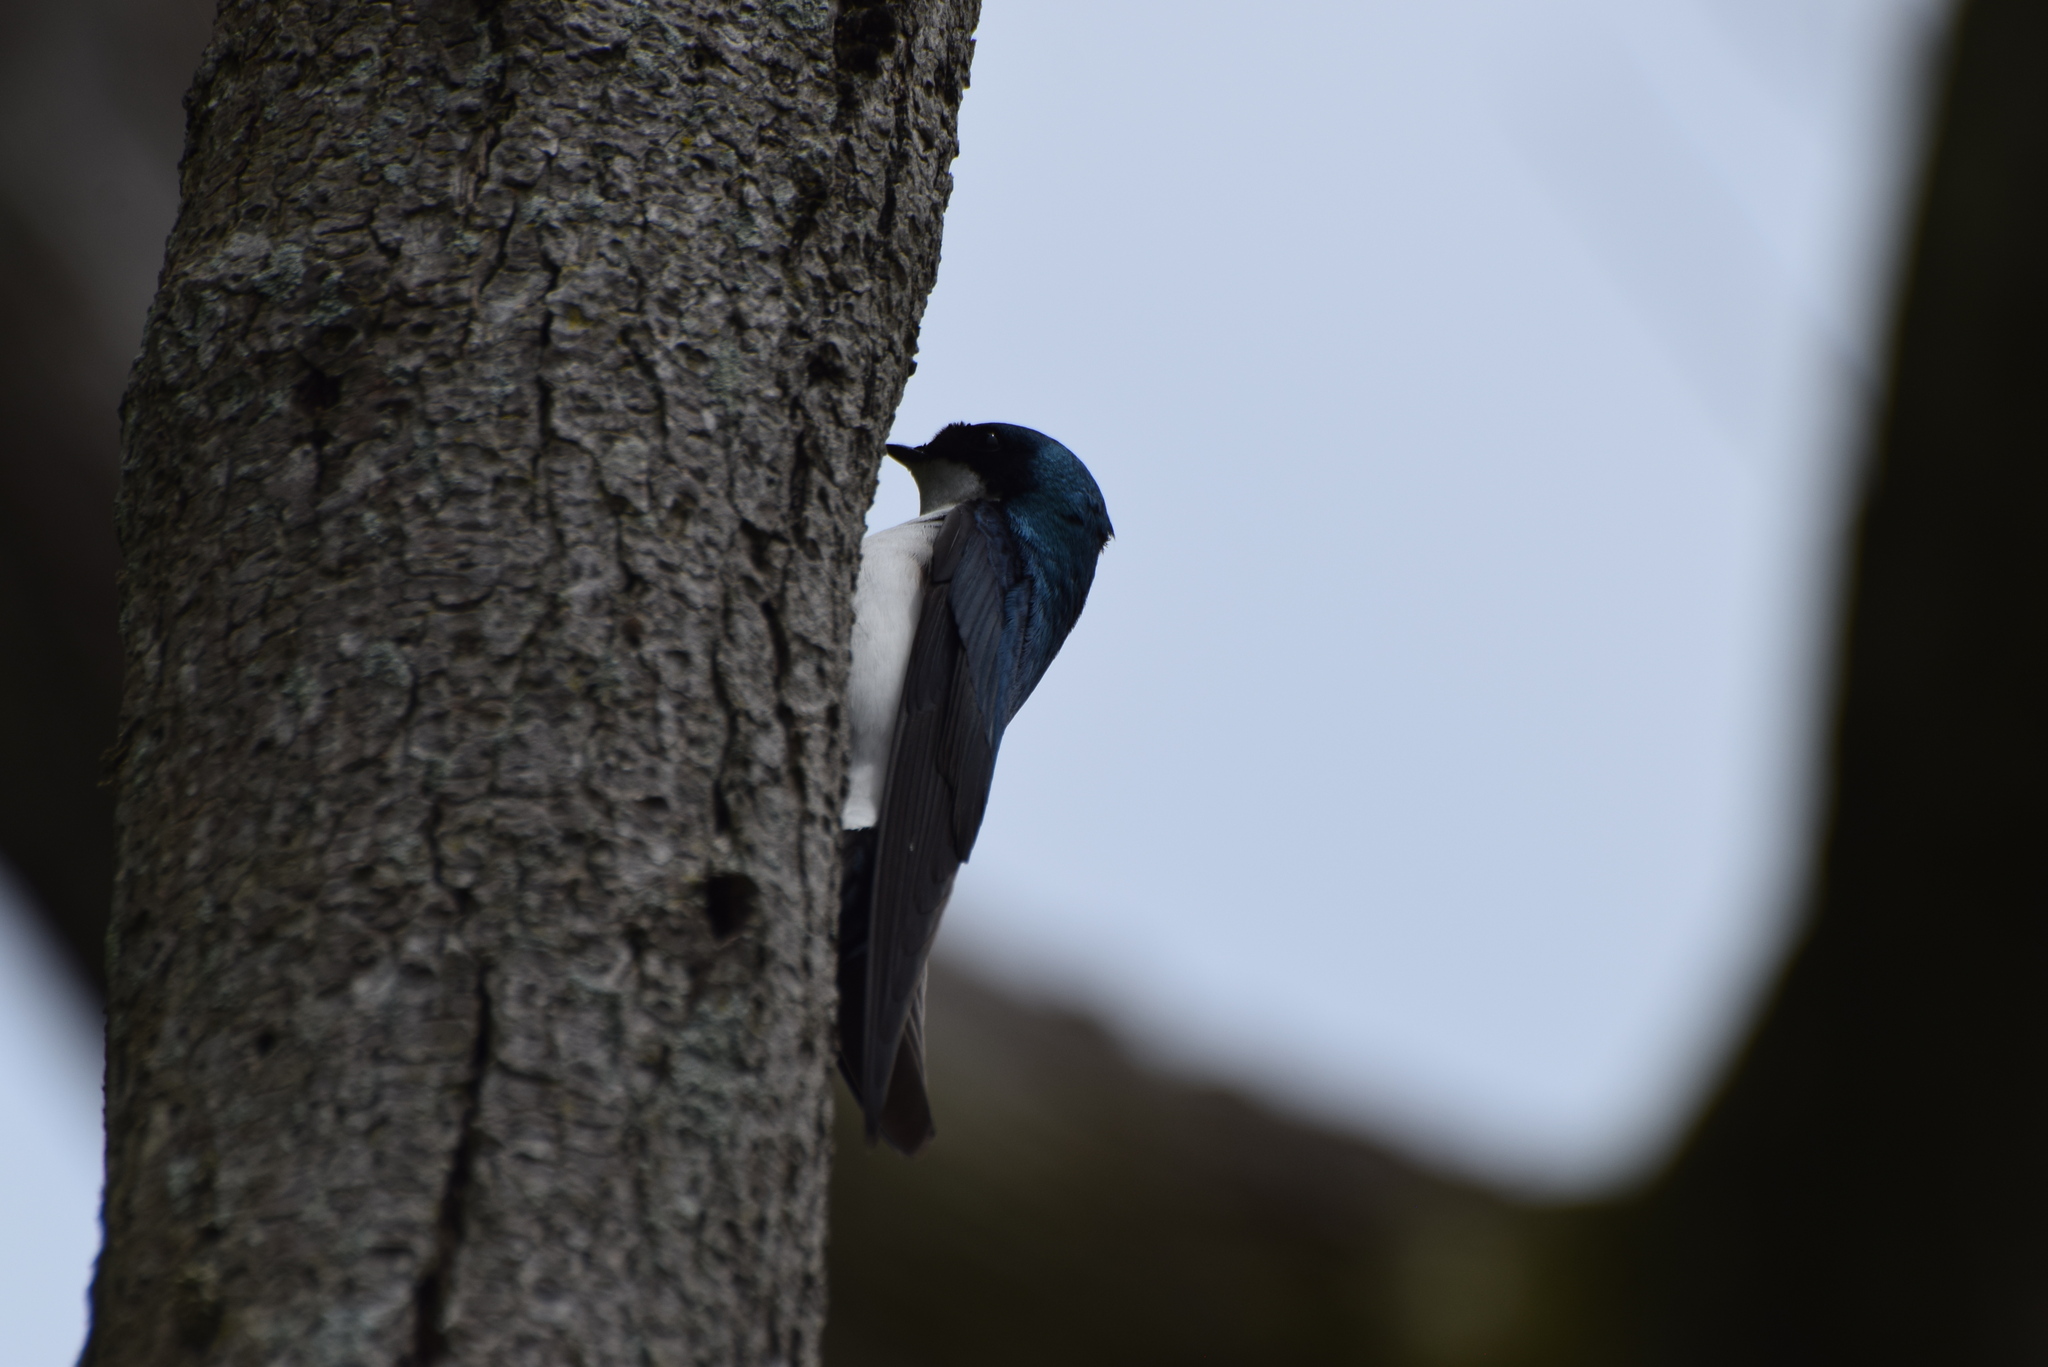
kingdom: Animalia
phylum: Chordata
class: Aves
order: Passeriformes
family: Hirundinidae
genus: Tachycineta
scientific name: Tachycineta bicolor
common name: Tree swallow
